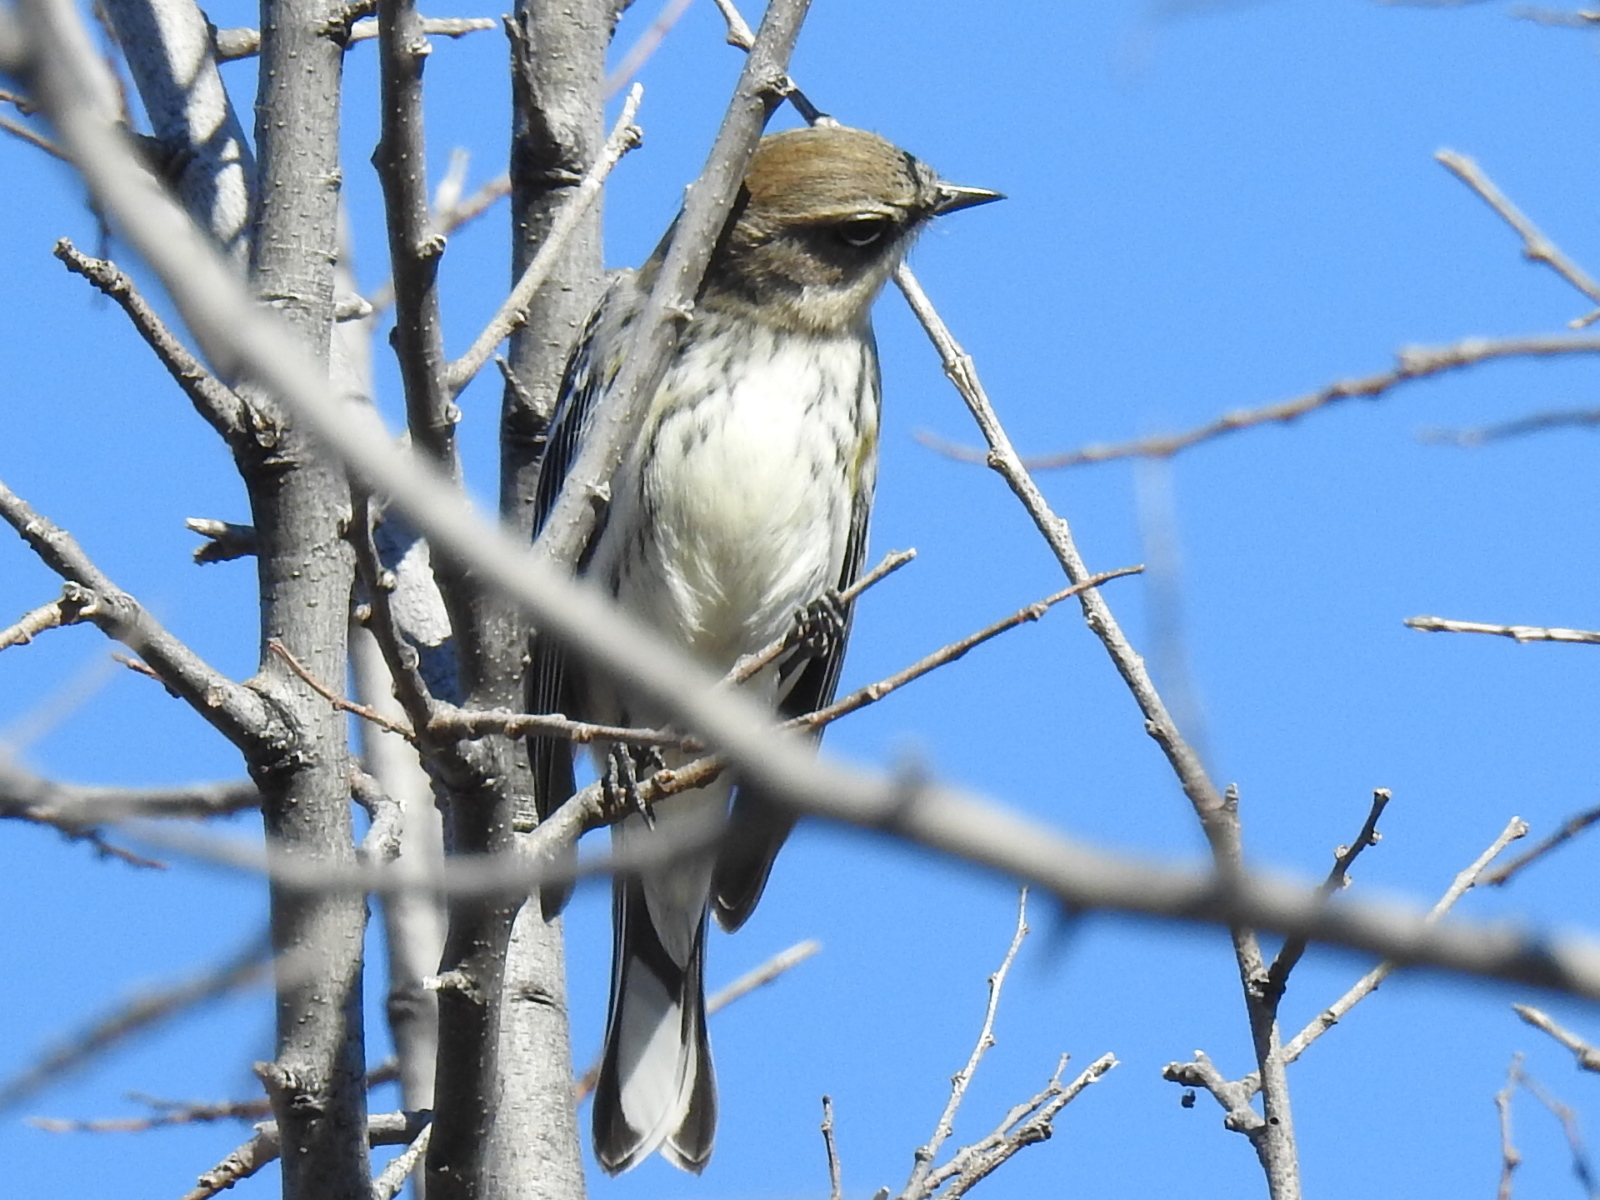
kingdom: Animalia
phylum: Chordata
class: Aves
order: Passeriformes
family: Parulidae
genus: Setophaga
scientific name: Setophaga coronata
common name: Myrtle warbler
